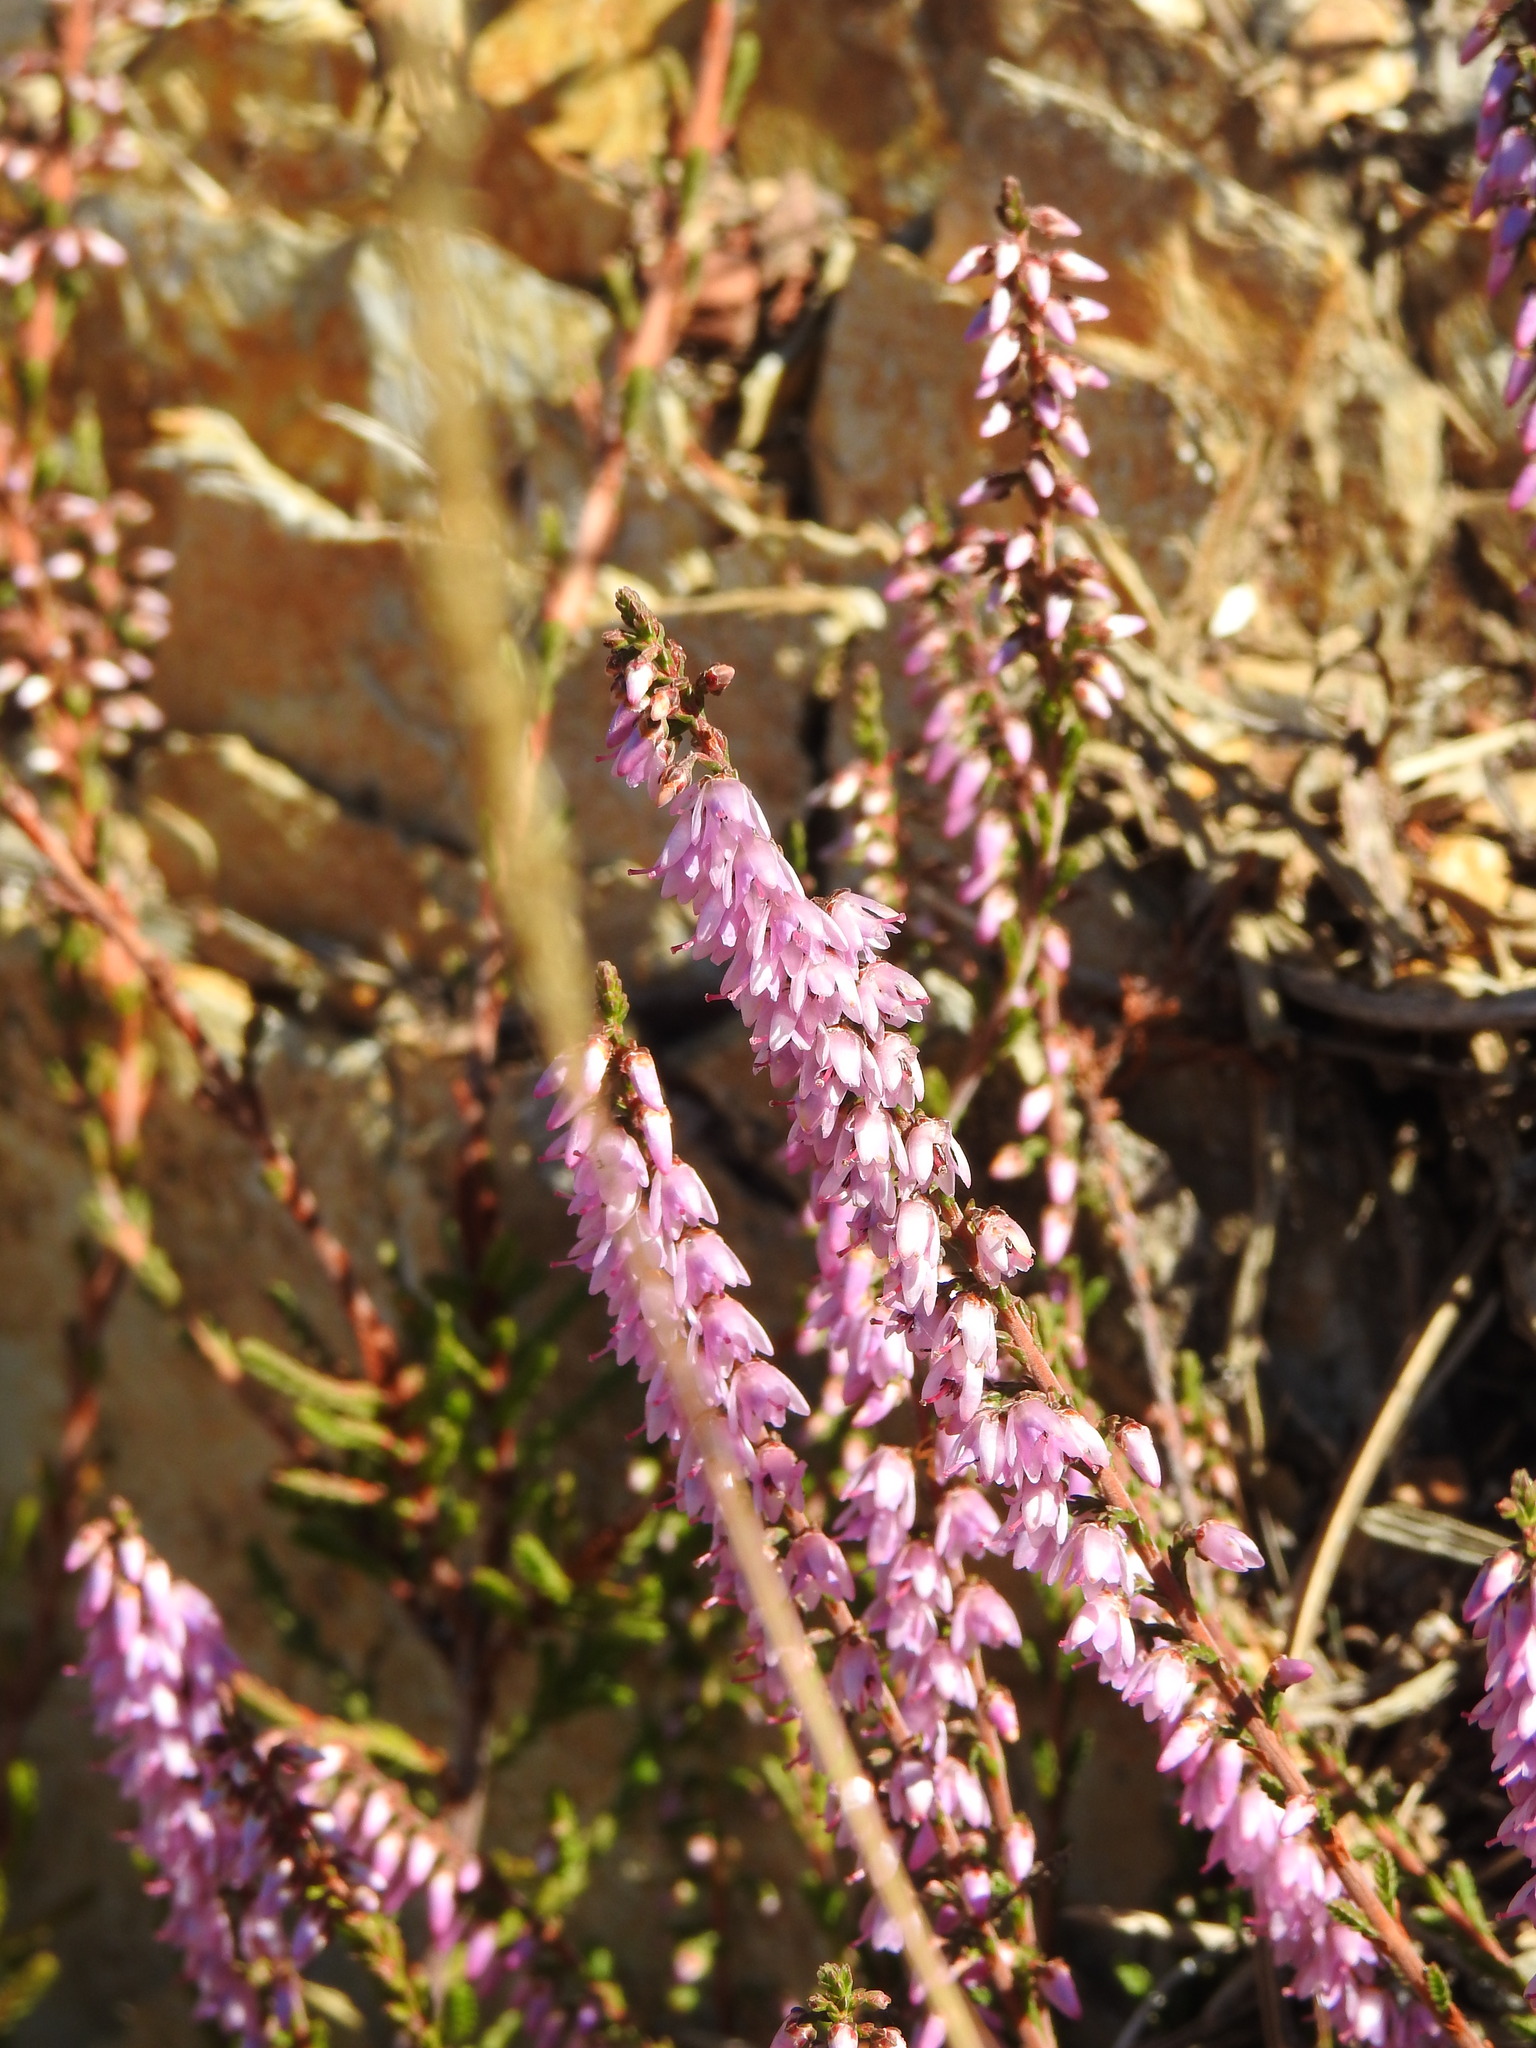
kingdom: Plantae
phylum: Tracheophyta
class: Magnoliopsida
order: Ericales
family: Ericaceae
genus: Calluna
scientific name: Calluna vulgaris
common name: Heather
